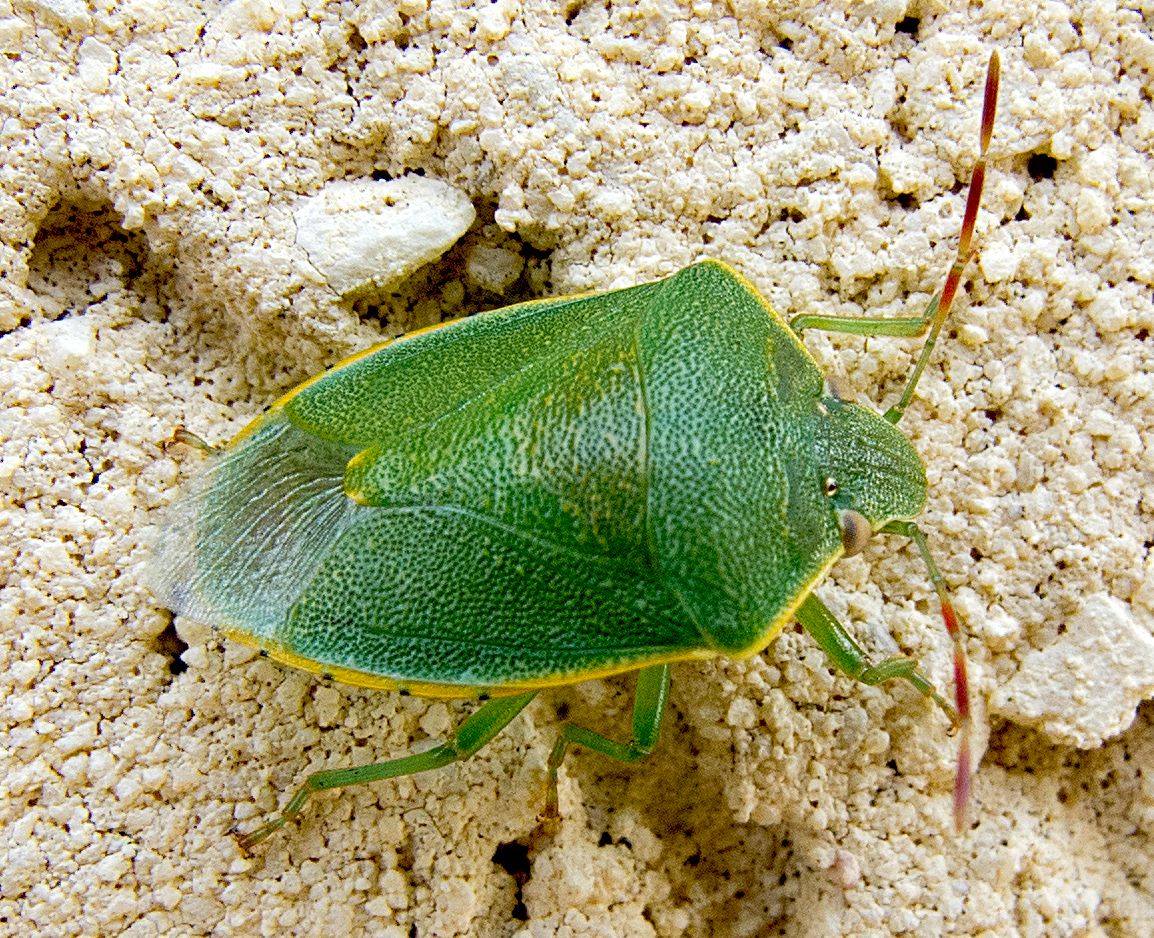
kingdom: Animalia
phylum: Arthropoda
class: Insecta
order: Hemiptera
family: Pentatomidae
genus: Acrosternum
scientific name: Acrosternum heegeri
